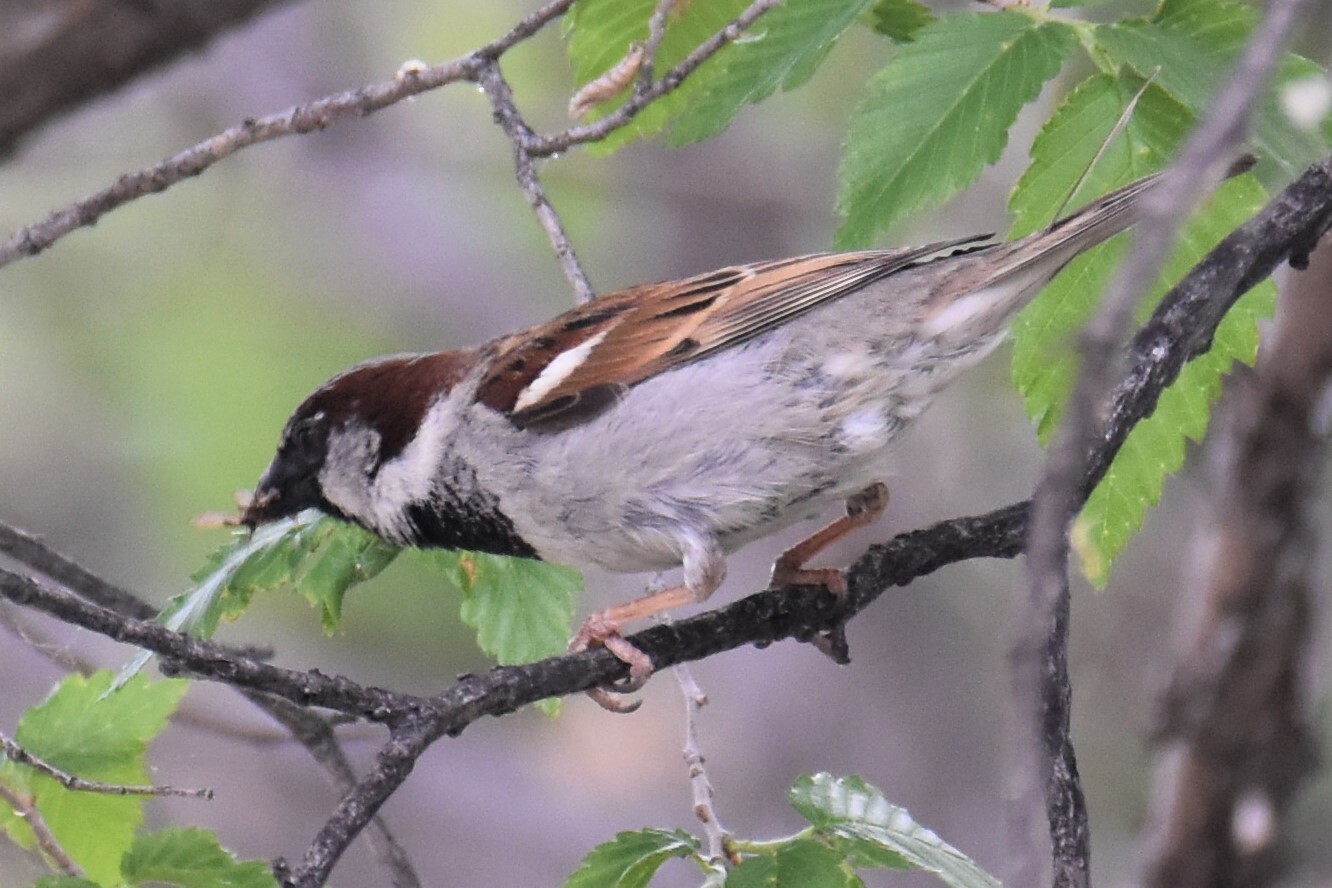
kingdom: Animalia
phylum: Chordata
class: Aves
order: Passeriformes
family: Passeridae
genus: Passer
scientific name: Passer domesticus
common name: House sparrow
